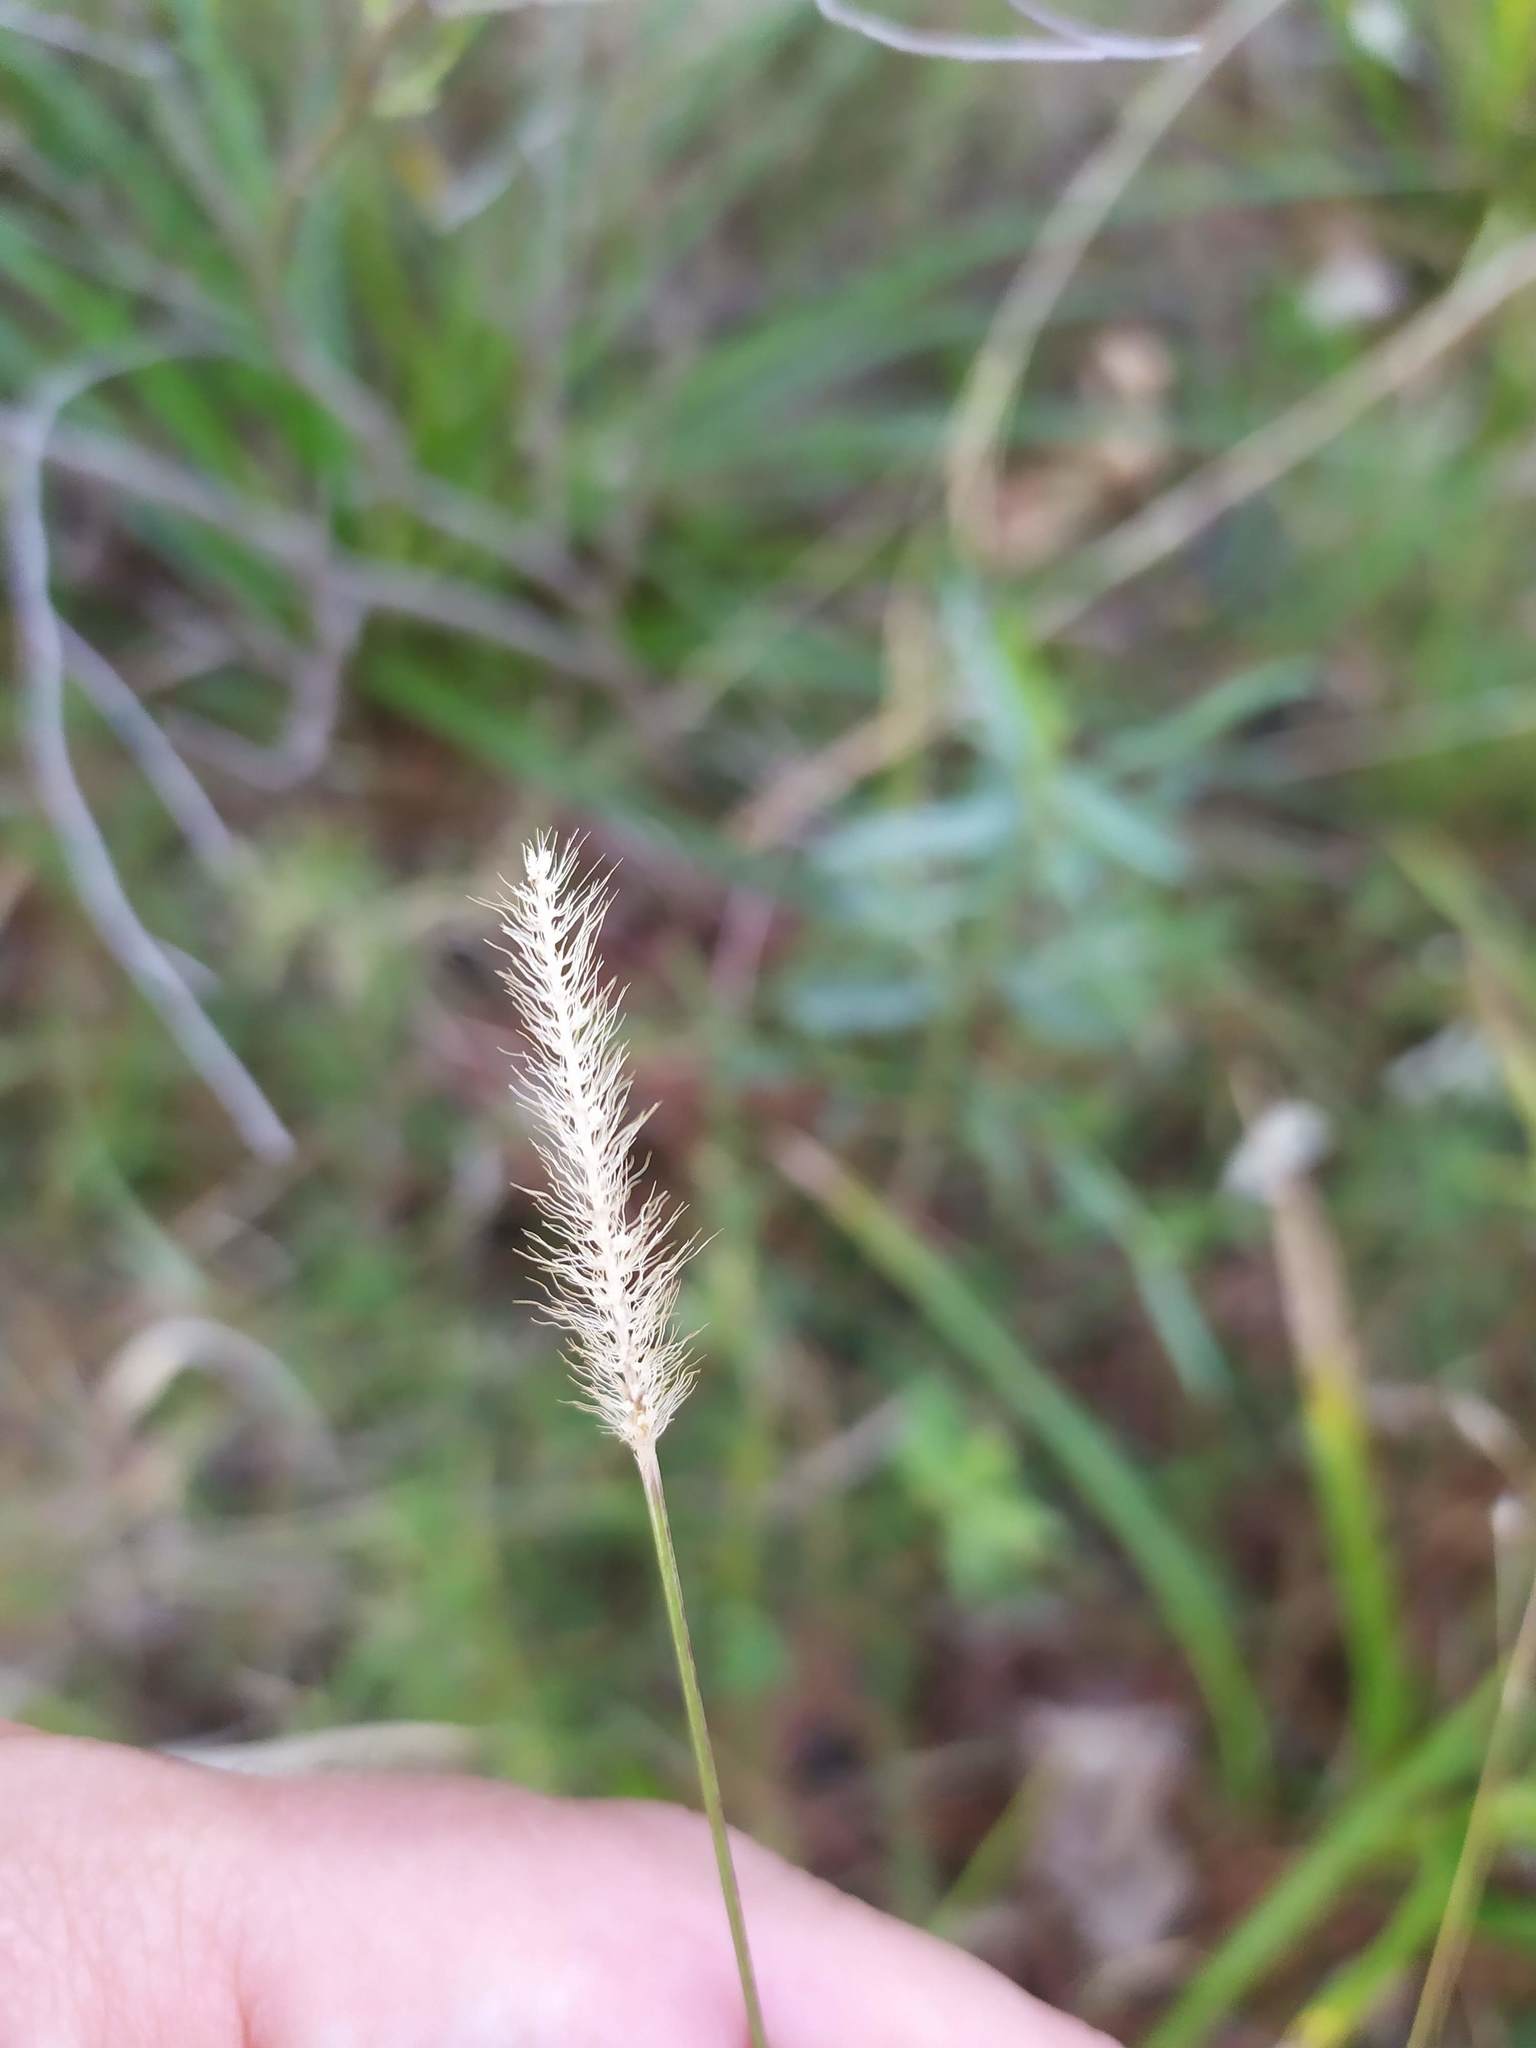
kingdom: Plantae
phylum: Tracheophyta
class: Liliopsida
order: Poales
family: Poaceae
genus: Setaria
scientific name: Setaria parviflora
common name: Knotroot bristle-grass
